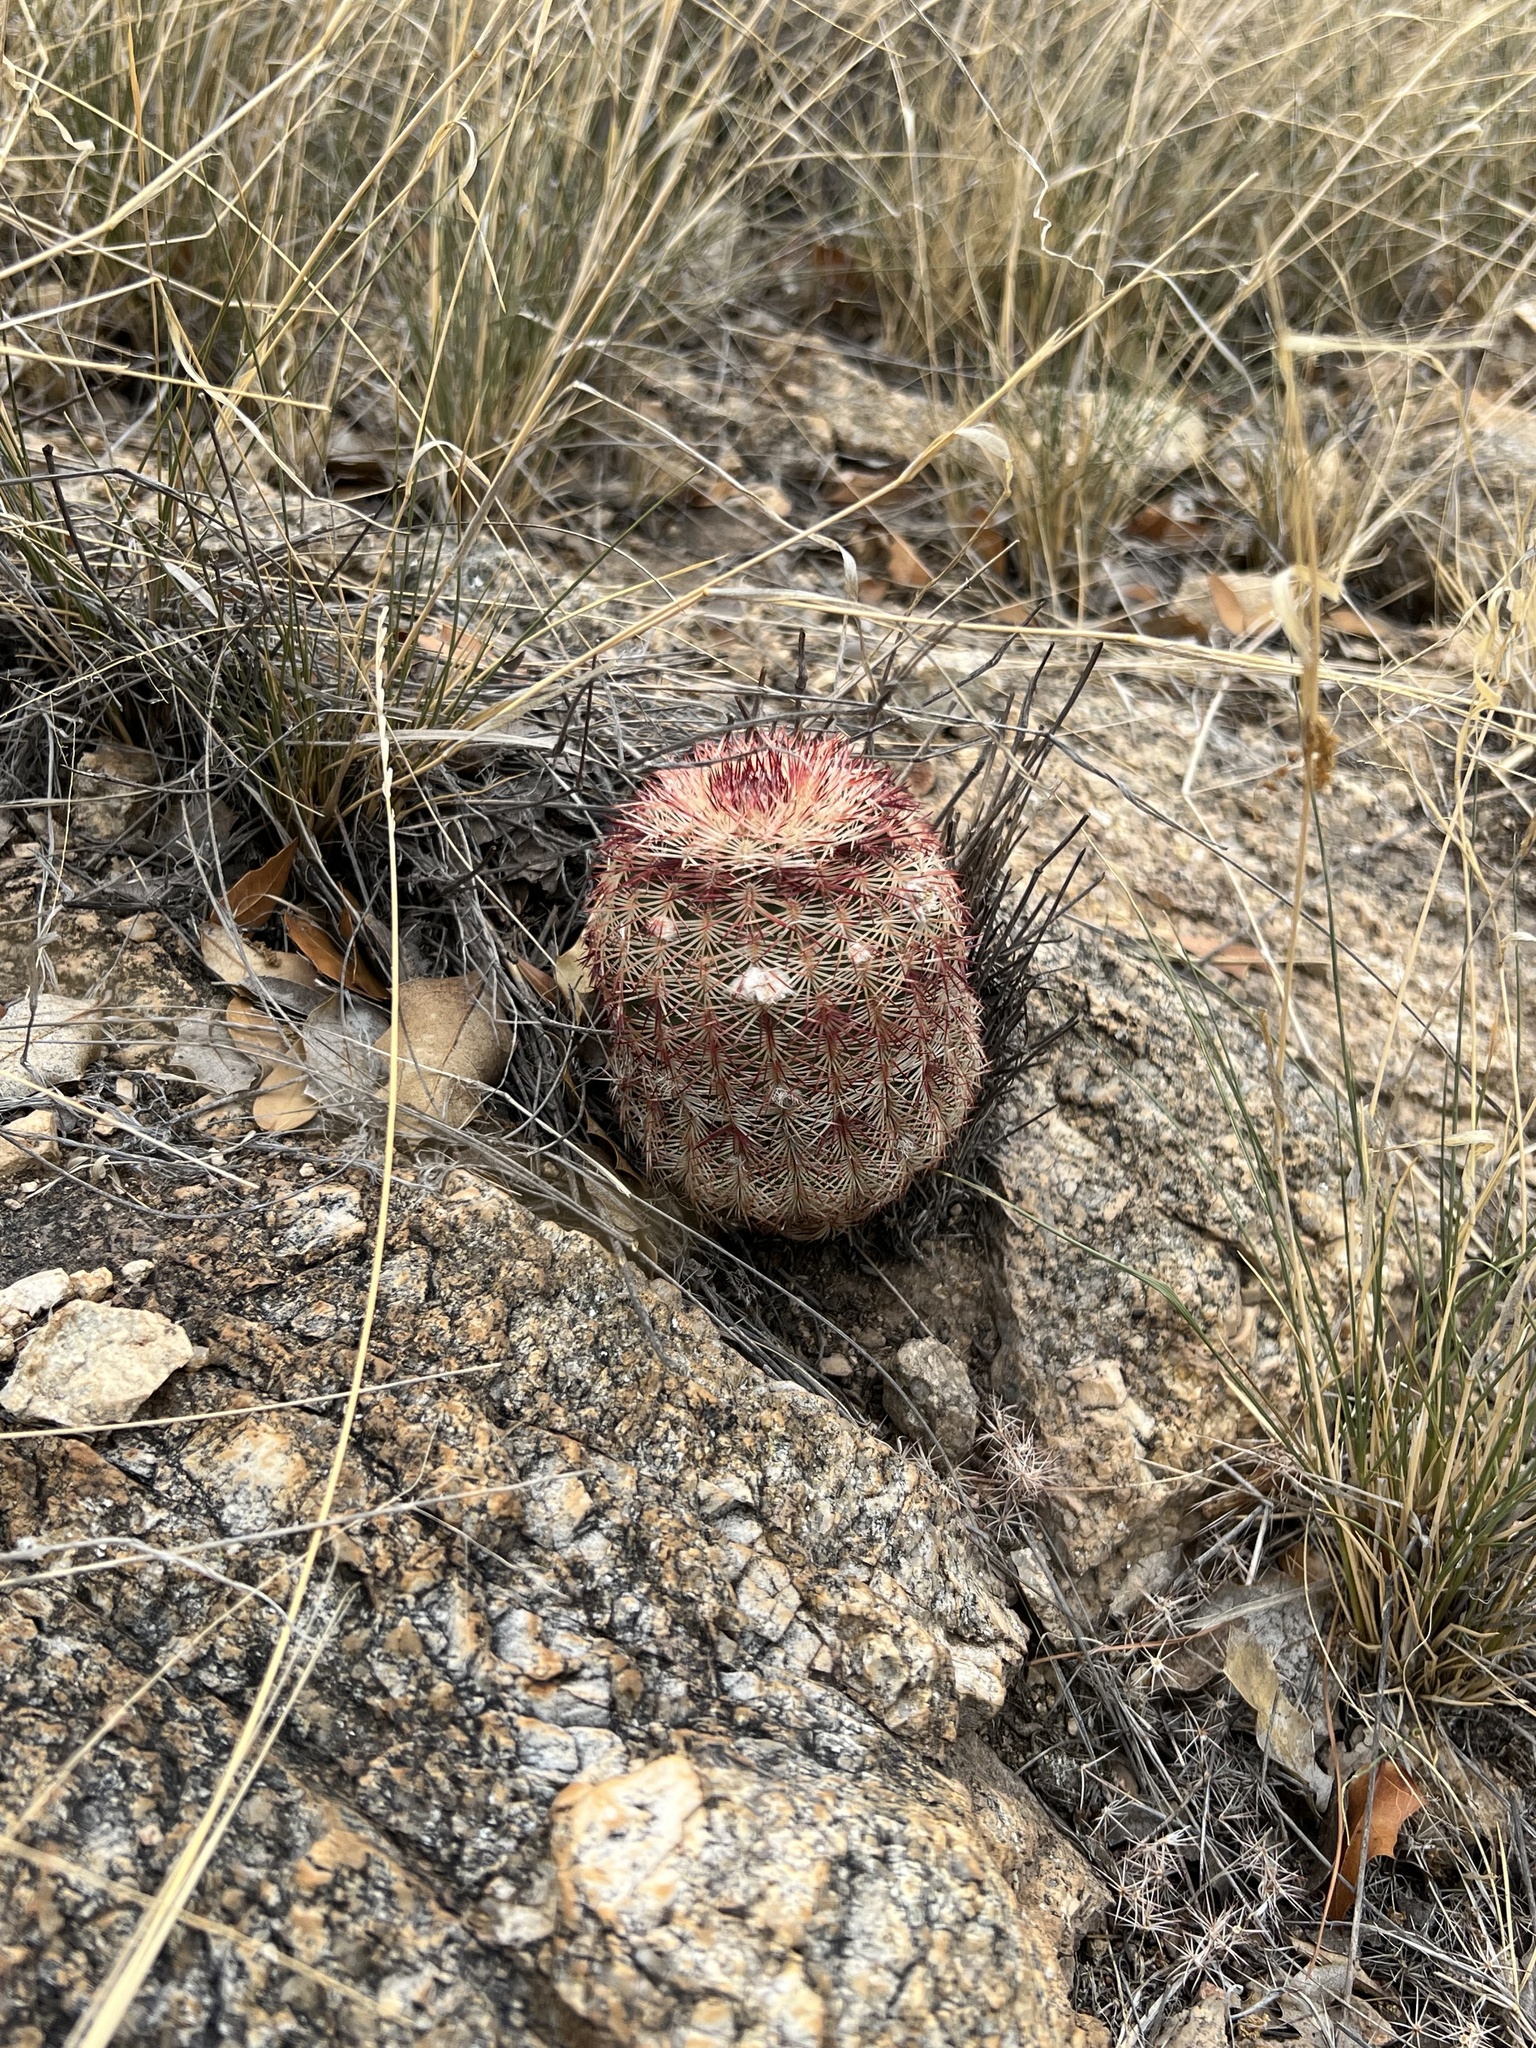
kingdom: Plantae
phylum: Tracheophyta
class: Magnoliopsida
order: Caryophyllales
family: Cactaceae
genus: Echinocereus
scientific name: Echinocereus rigidissimus
